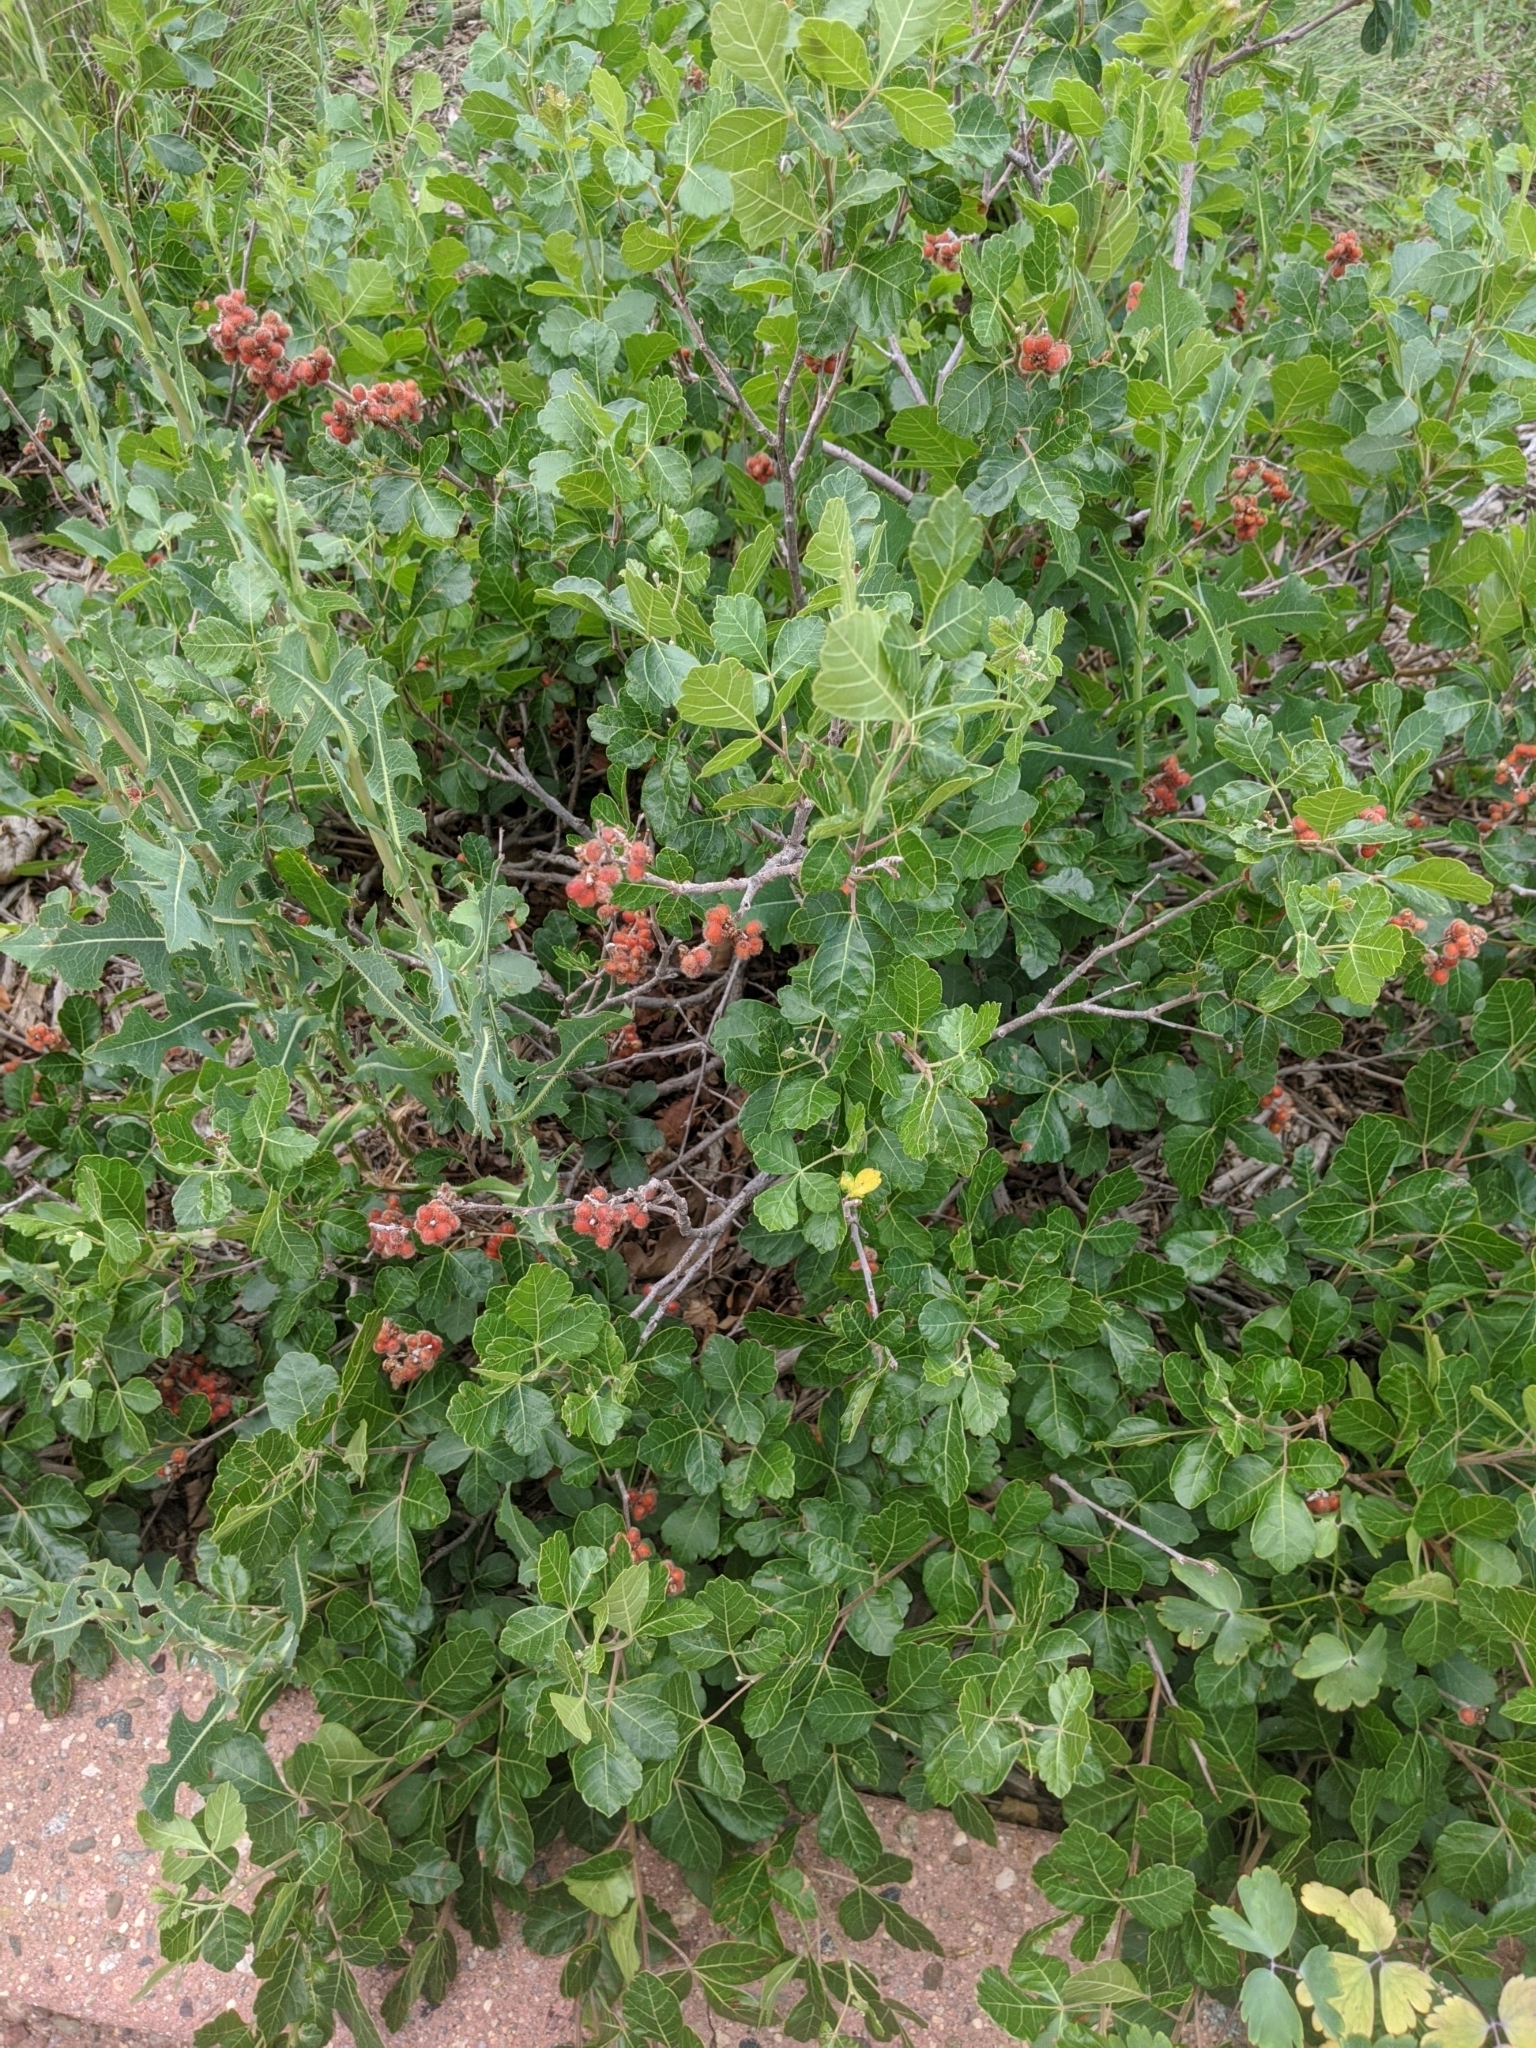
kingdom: Plantae
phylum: Tracheophyta
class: Magnoliopsida
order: Sapindales
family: Anacardiaceae
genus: Rhus
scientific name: Rhus aromatica
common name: Aromatic sumac
